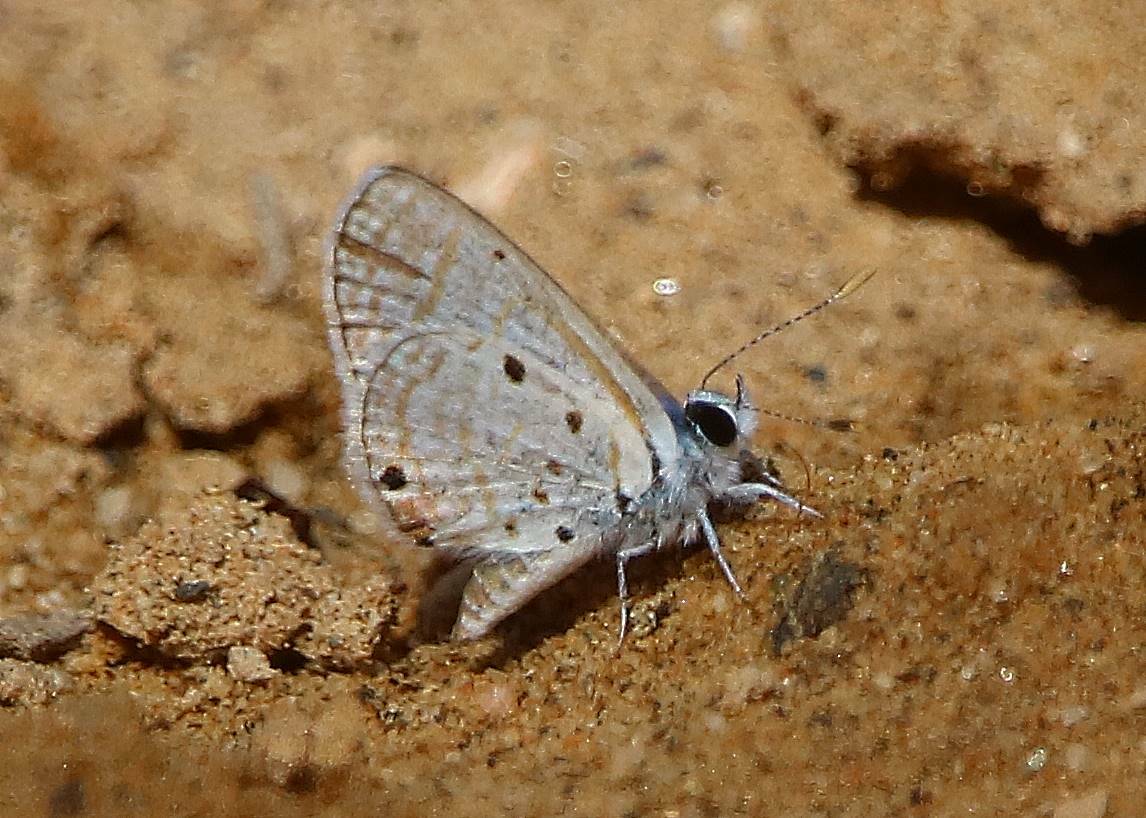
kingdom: Animalia
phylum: Arthropoda
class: Insecta
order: Lepidoptera
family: Lycaenidae
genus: Azanus
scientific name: Azanus ubaldus
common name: Desert babul blue
